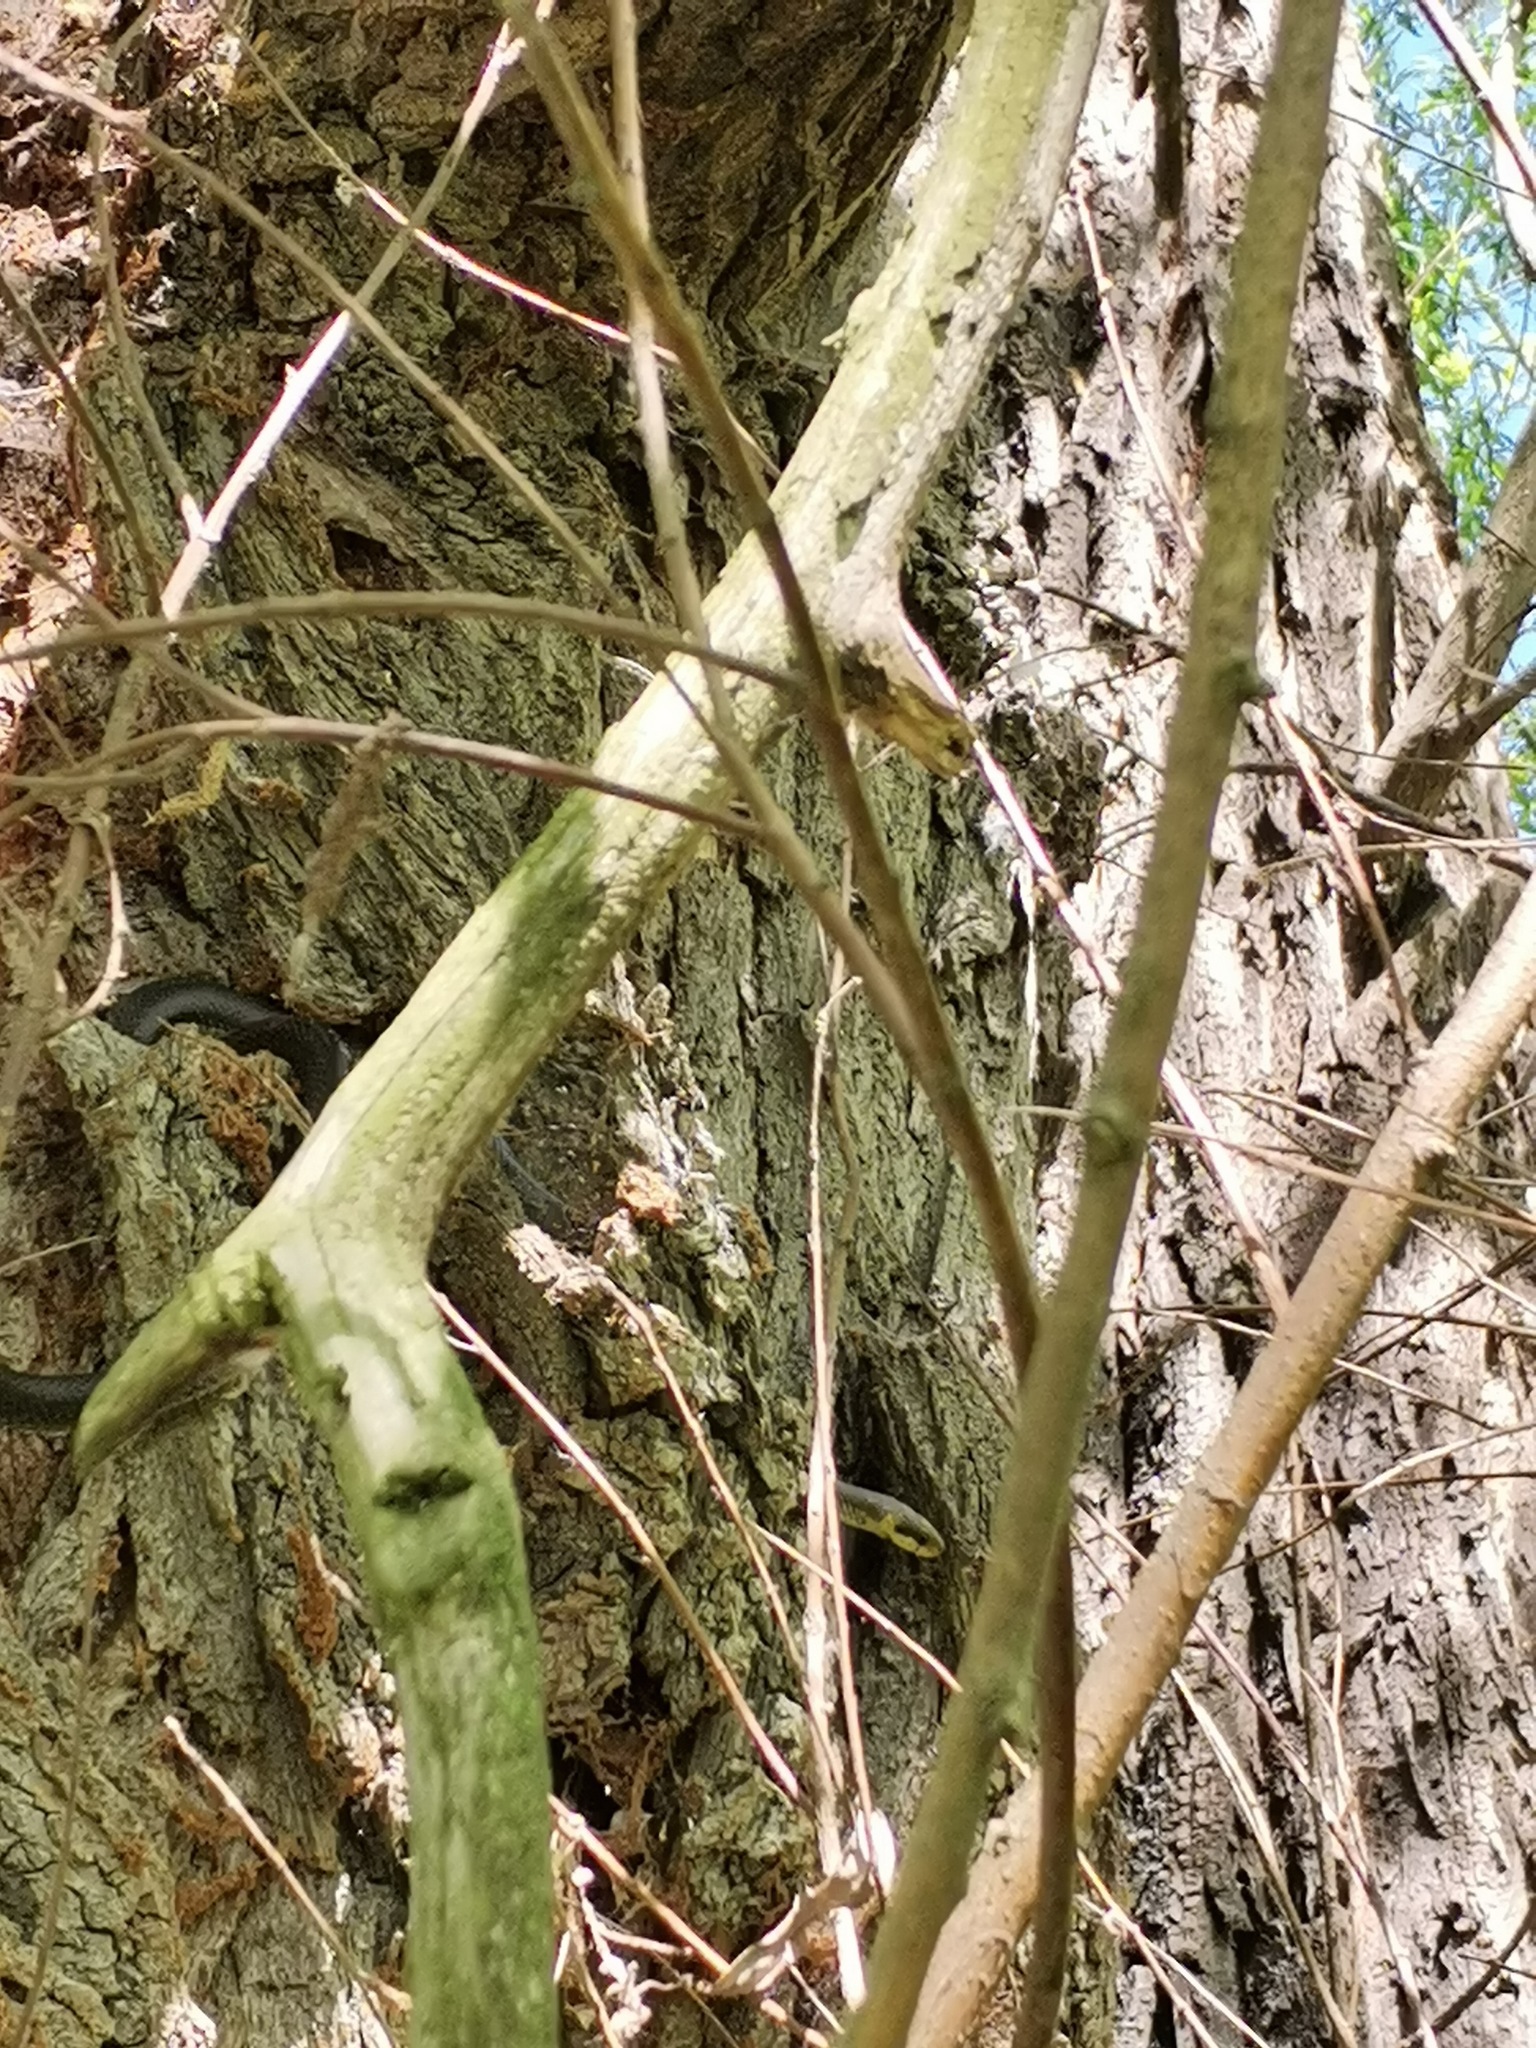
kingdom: Animalia
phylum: Chordata
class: Squamata
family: Colubridae
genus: Zamenis
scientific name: Zamenis longissimus
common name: Aesculapean snake
